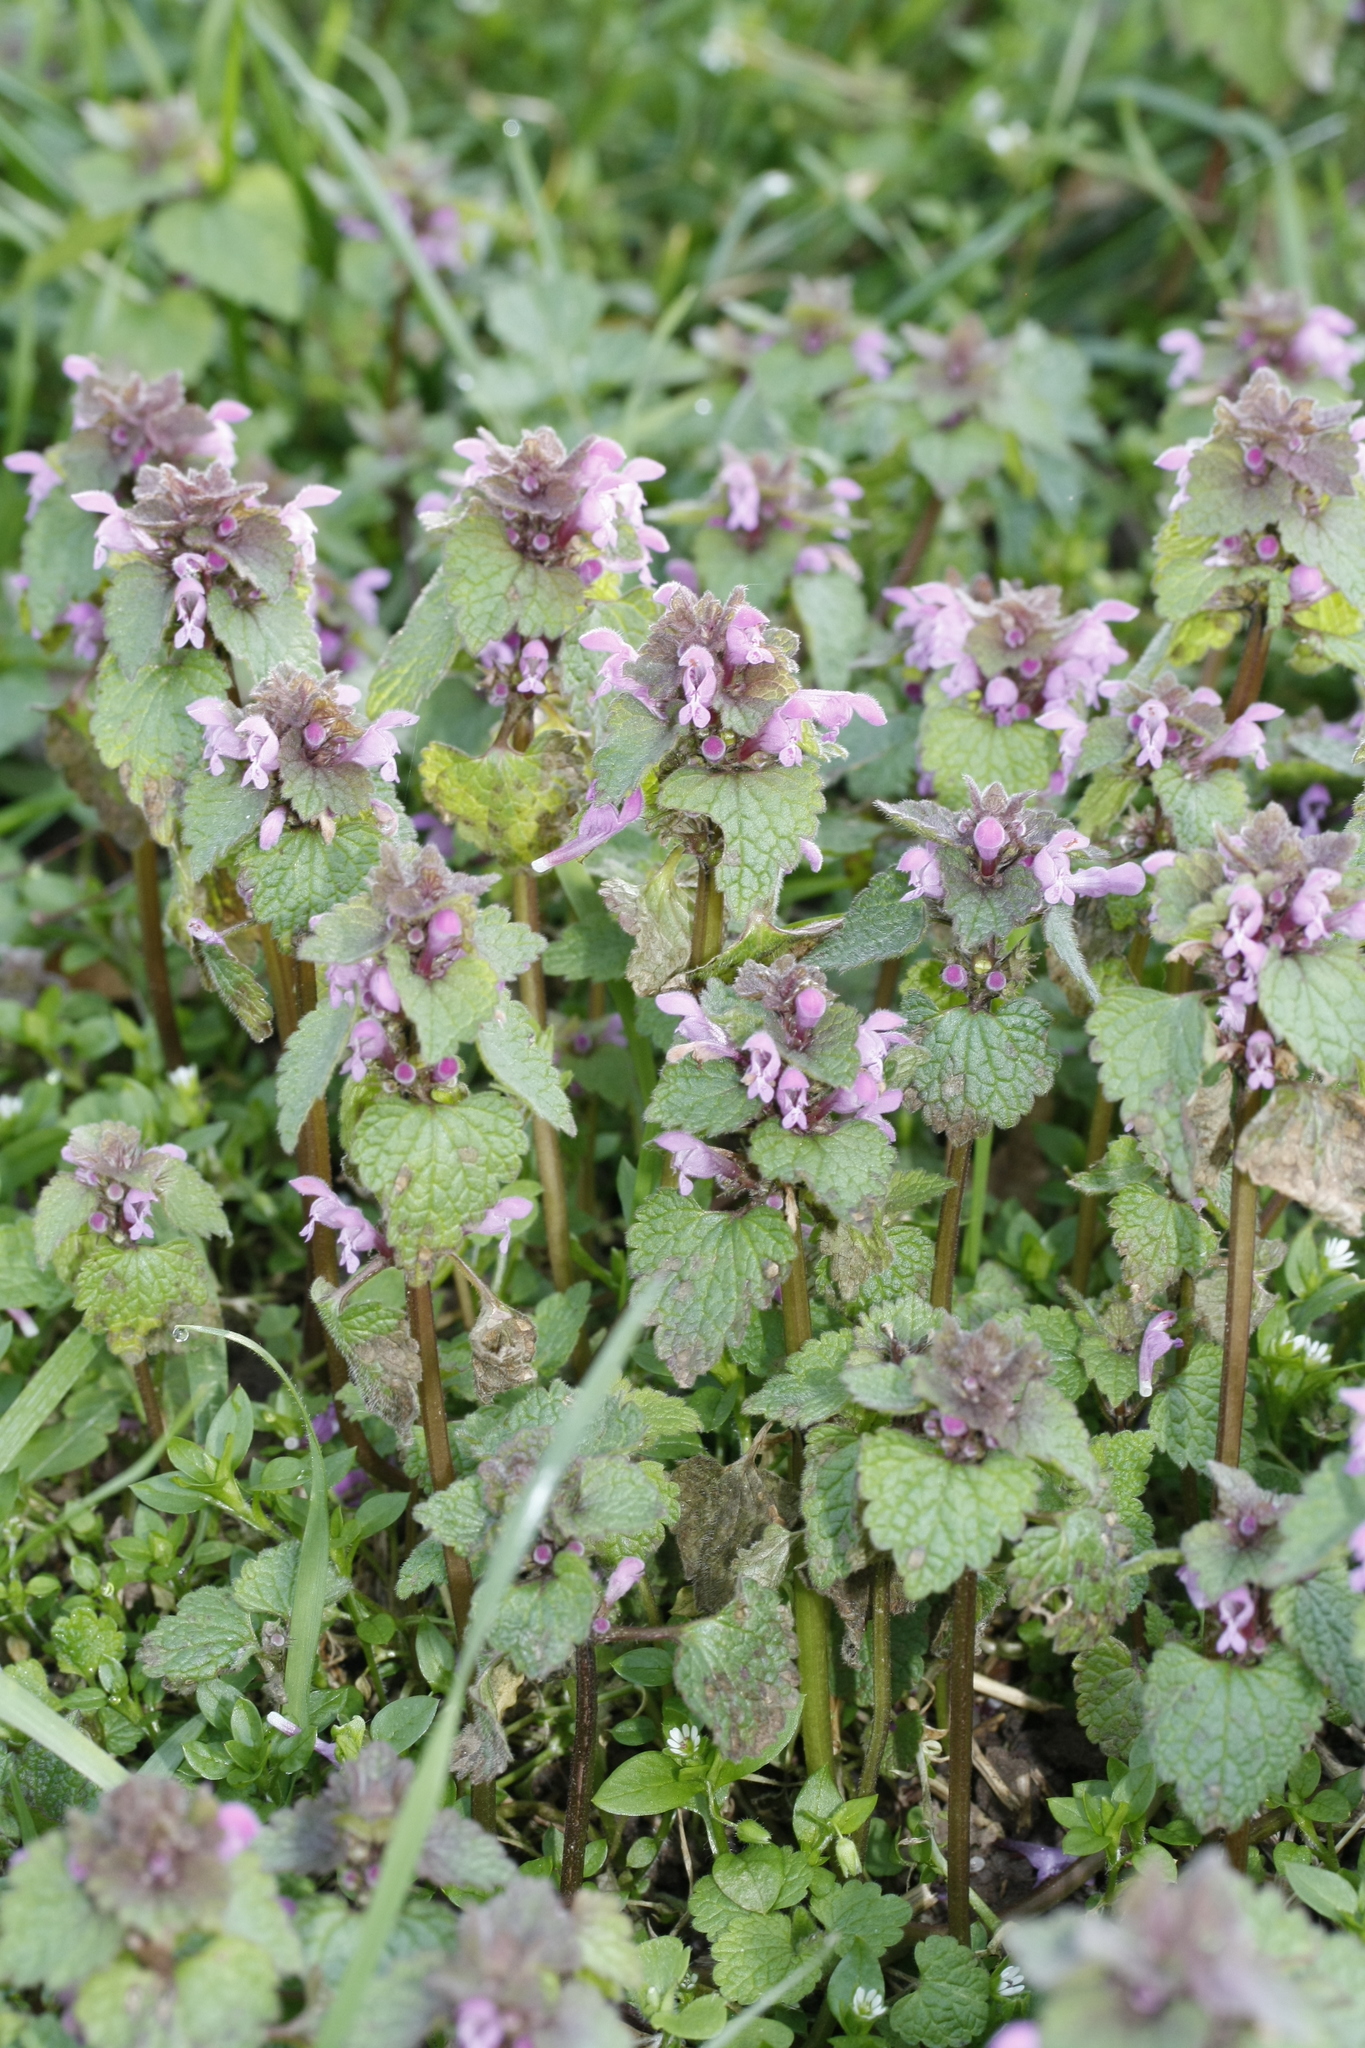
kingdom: Plantae
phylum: Tracheophyta
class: Magnoliopsida
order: Lamiales
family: Lamiaceae
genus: Lamium
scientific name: Lamium purpureum
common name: Red dead-nettle
